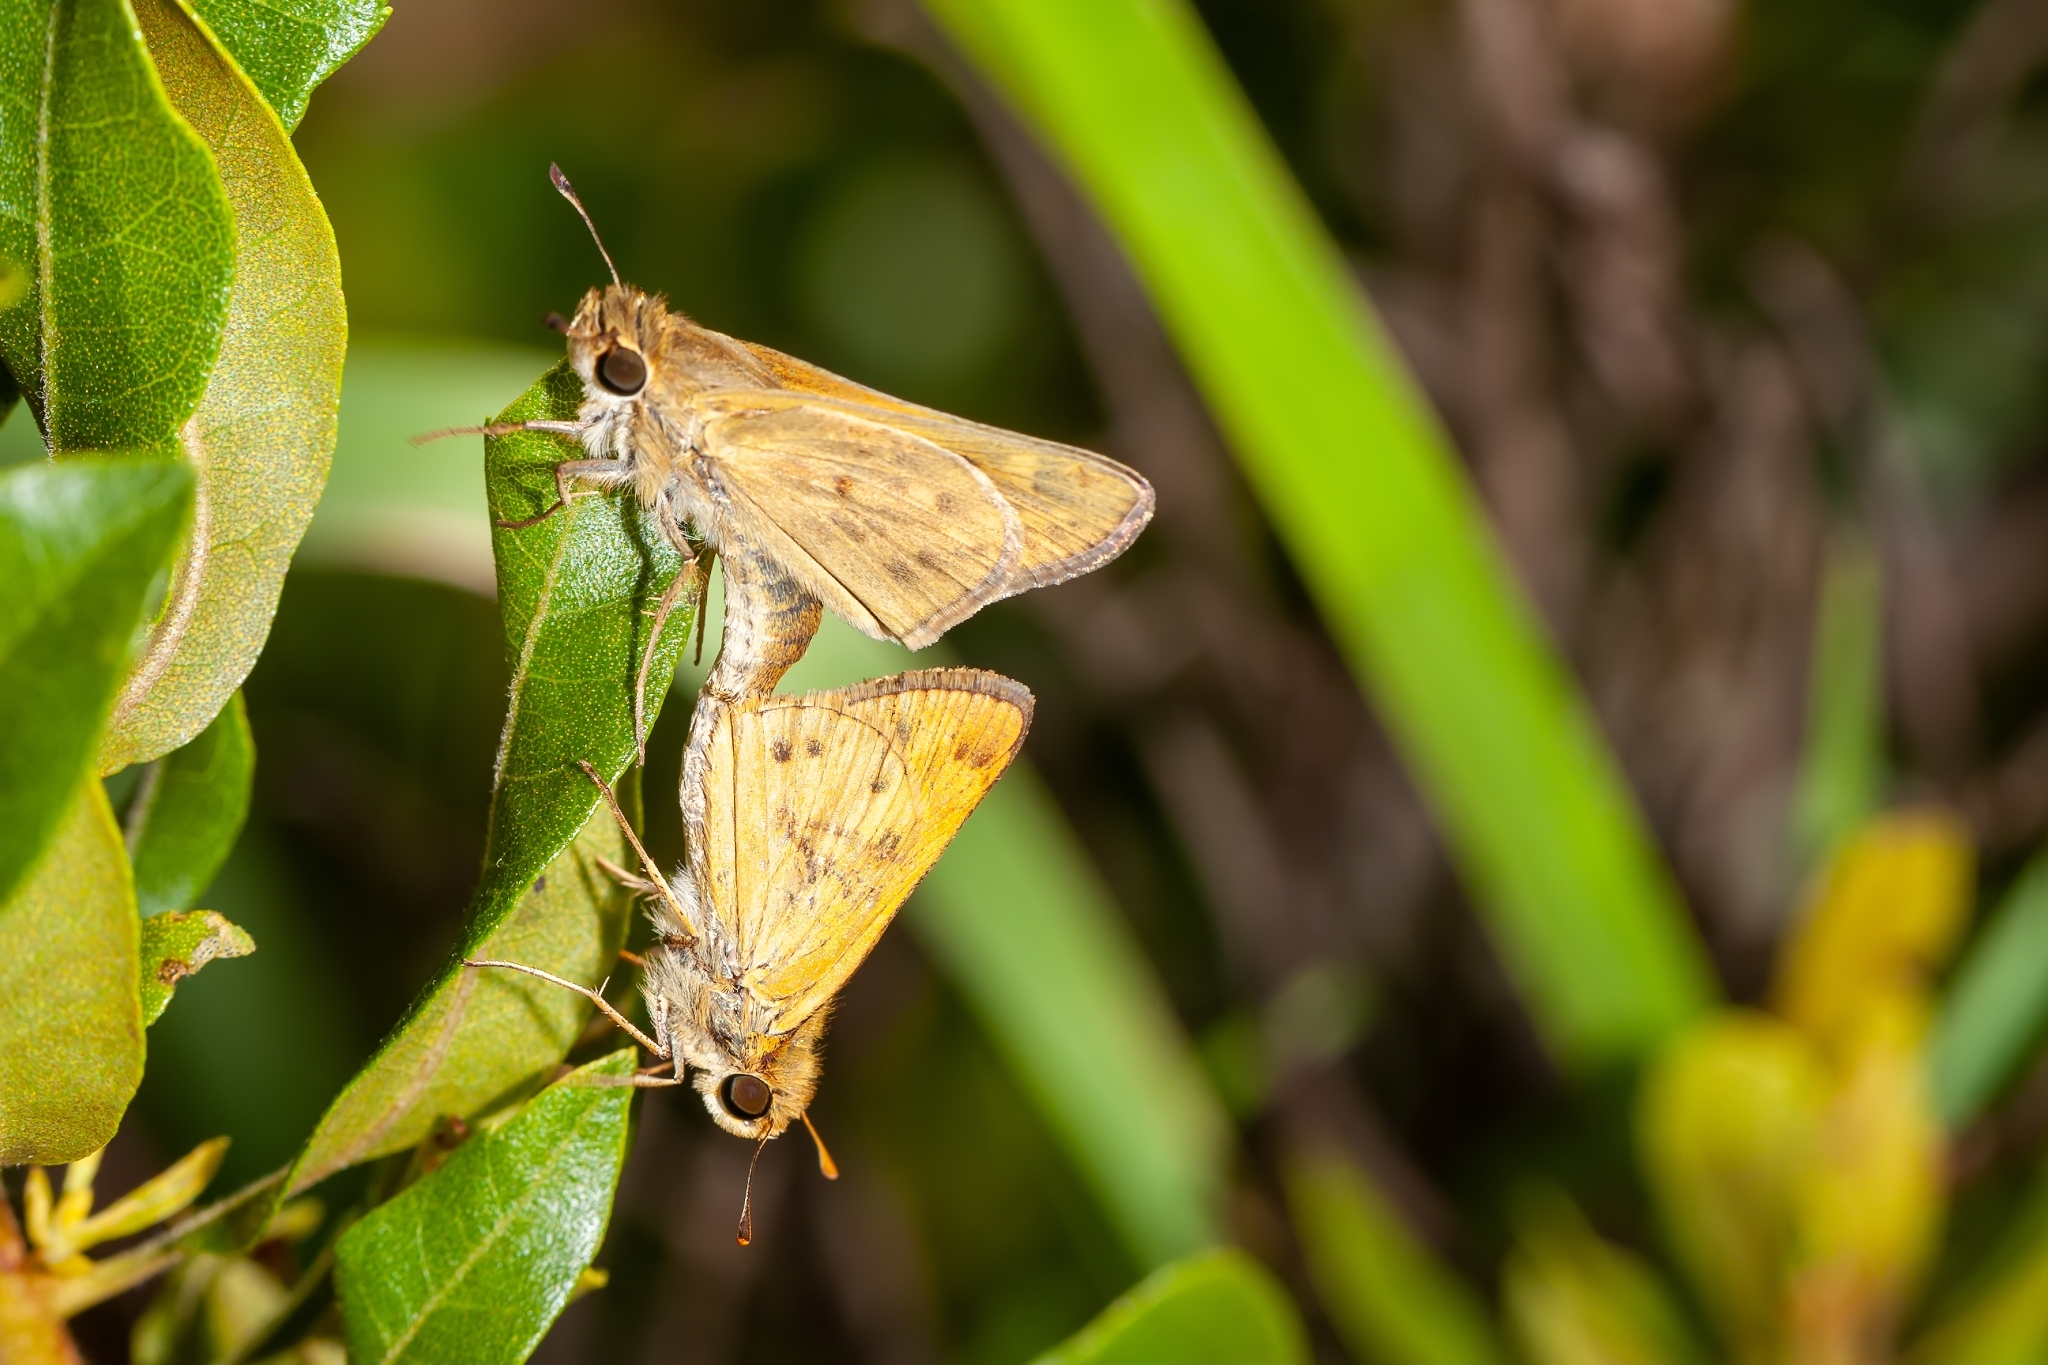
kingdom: Animalia
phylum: Arthropoda
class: Insecta
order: Lepidoptera
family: Hesperiidae
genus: Hylephila
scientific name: Hylephila phyleus
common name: Fiery skipper
